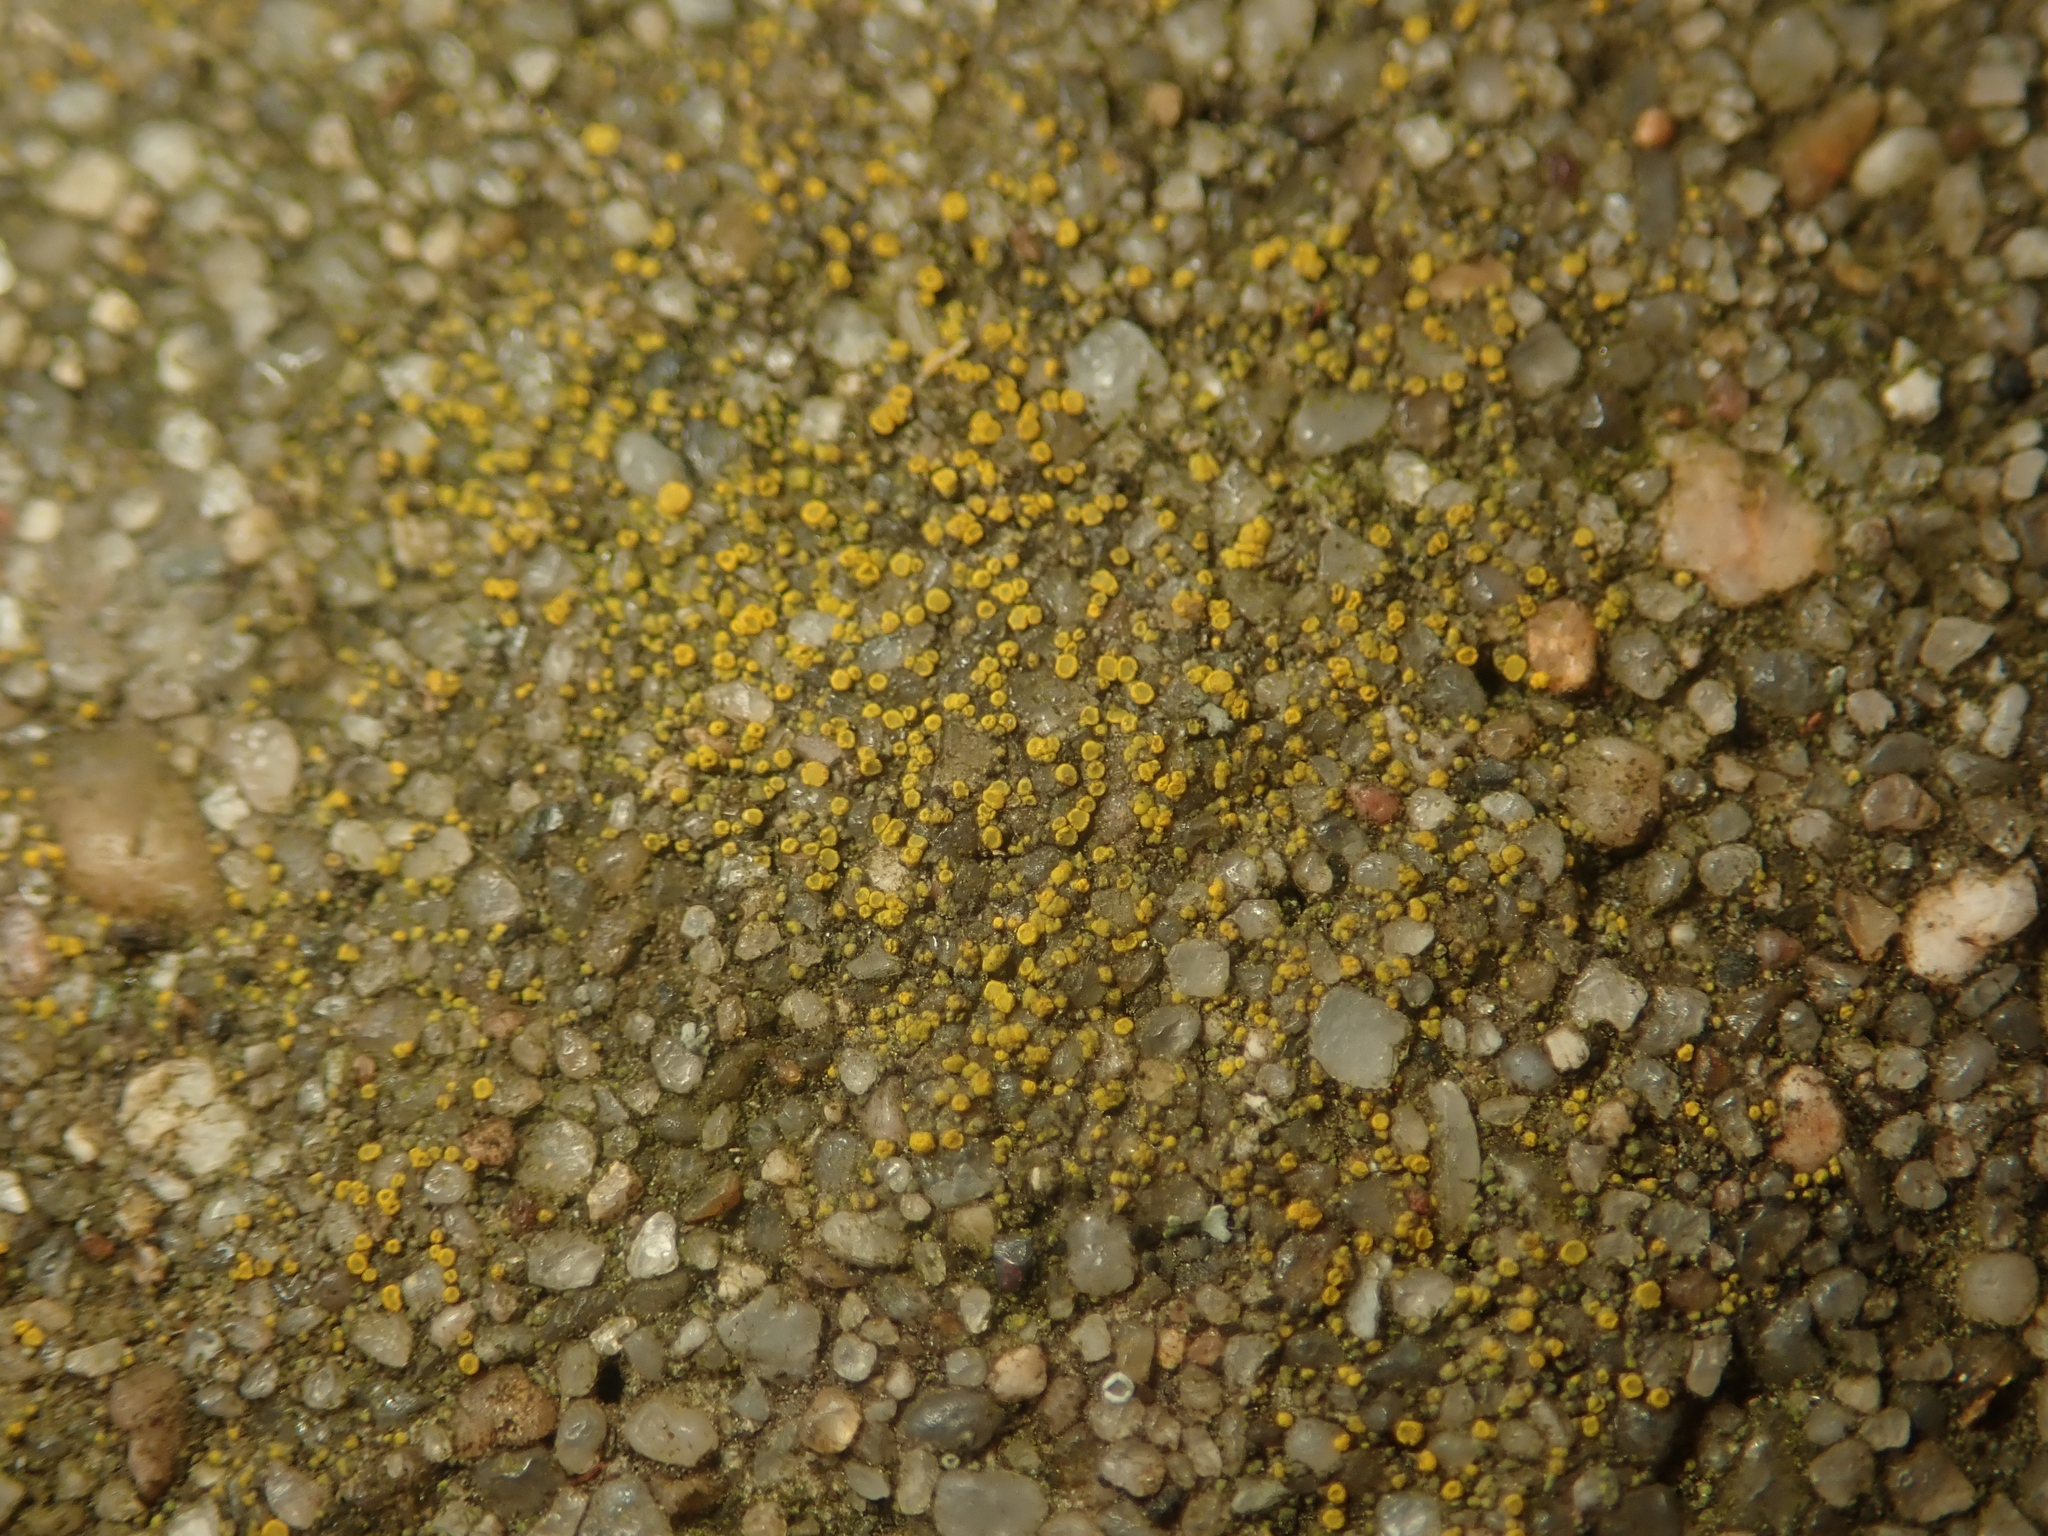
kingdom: Fungi
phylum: Ascomycota
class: Candelariomycetes
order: Candelariales
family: Candelariaceae
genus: Candelariella
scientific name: Candelariella aurella
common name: Hidden goldspeck lichen
